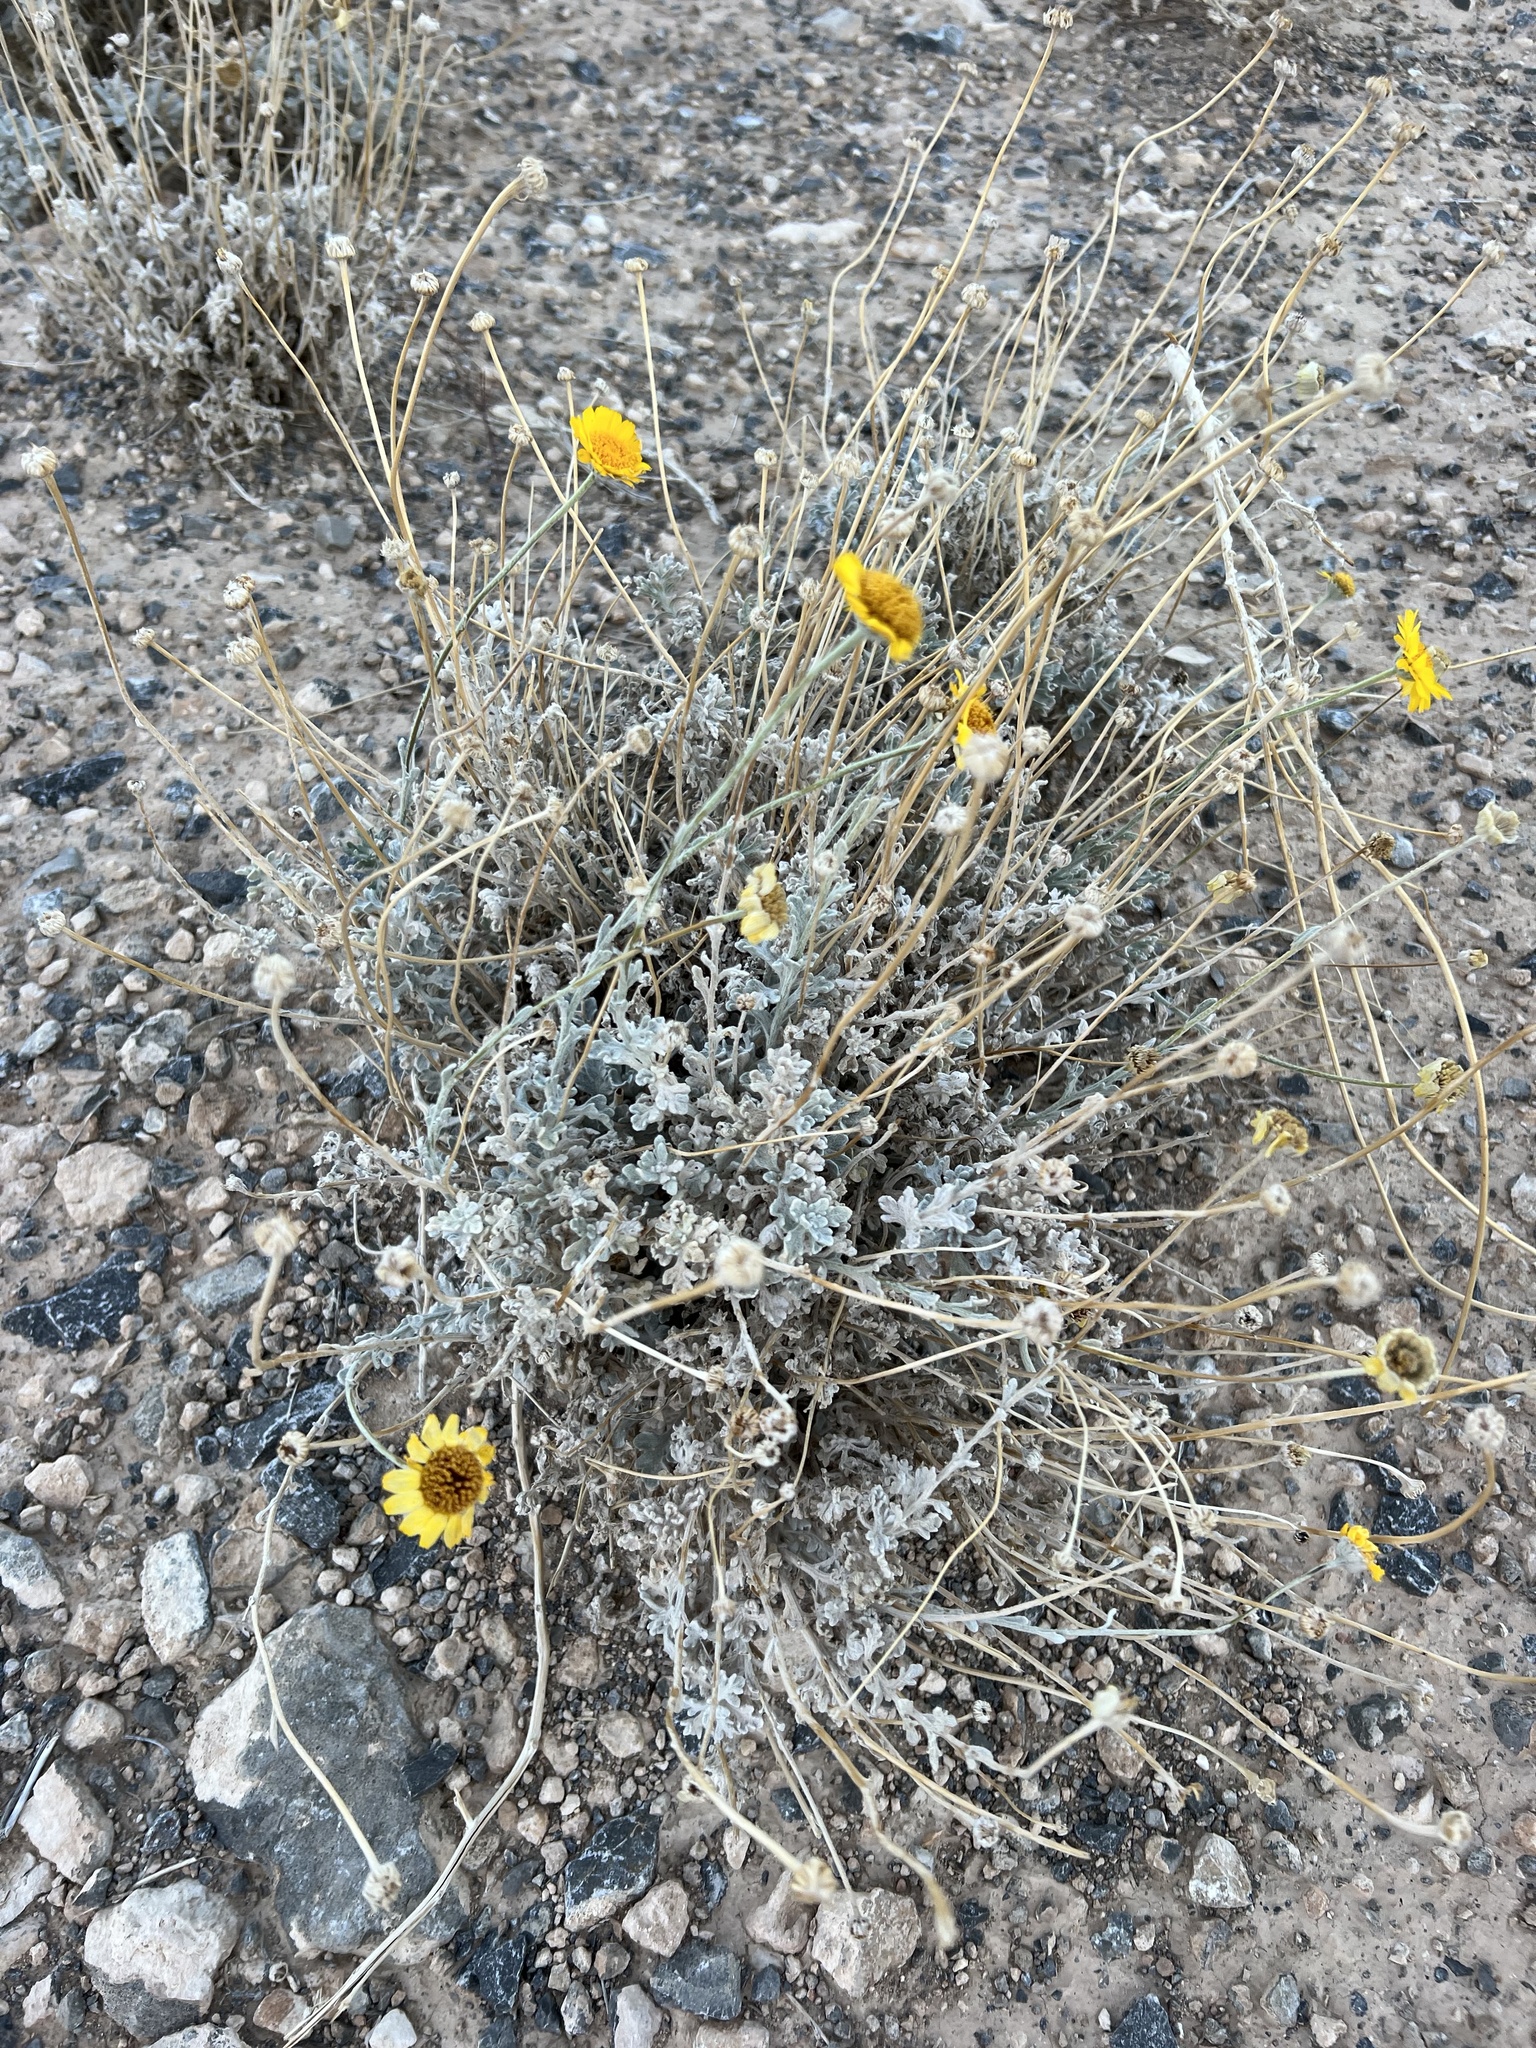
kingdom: Plantae
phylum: Tracheophyta
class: Magnoliopsida
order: Asterales
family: Asteraceae
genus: Baileya
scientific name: Baileya multiradiata
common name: Desert-marigold
